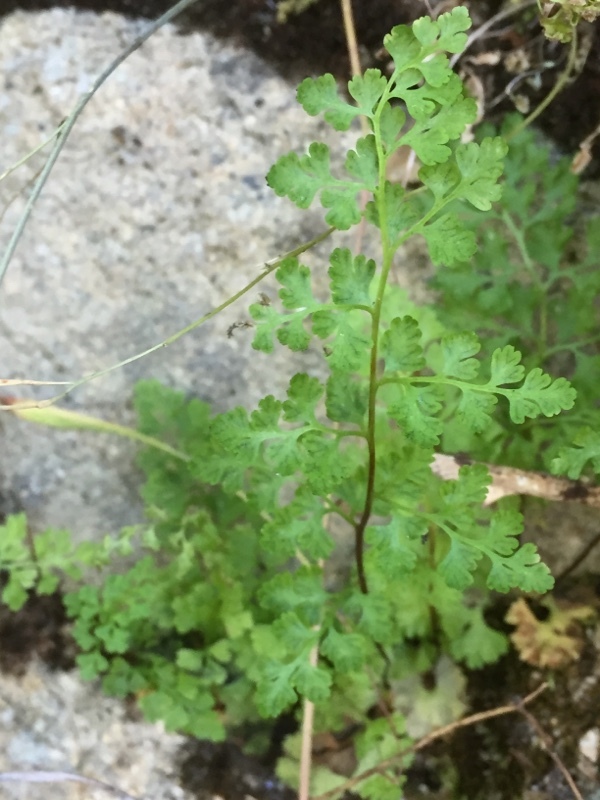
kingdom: Plantae
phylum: Tracheophyta
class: Polypodiopsida
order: Polypodiales
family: Pteridaceae
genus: Anogramma
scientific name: Anogramma leptophylla
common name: Jersey fern
